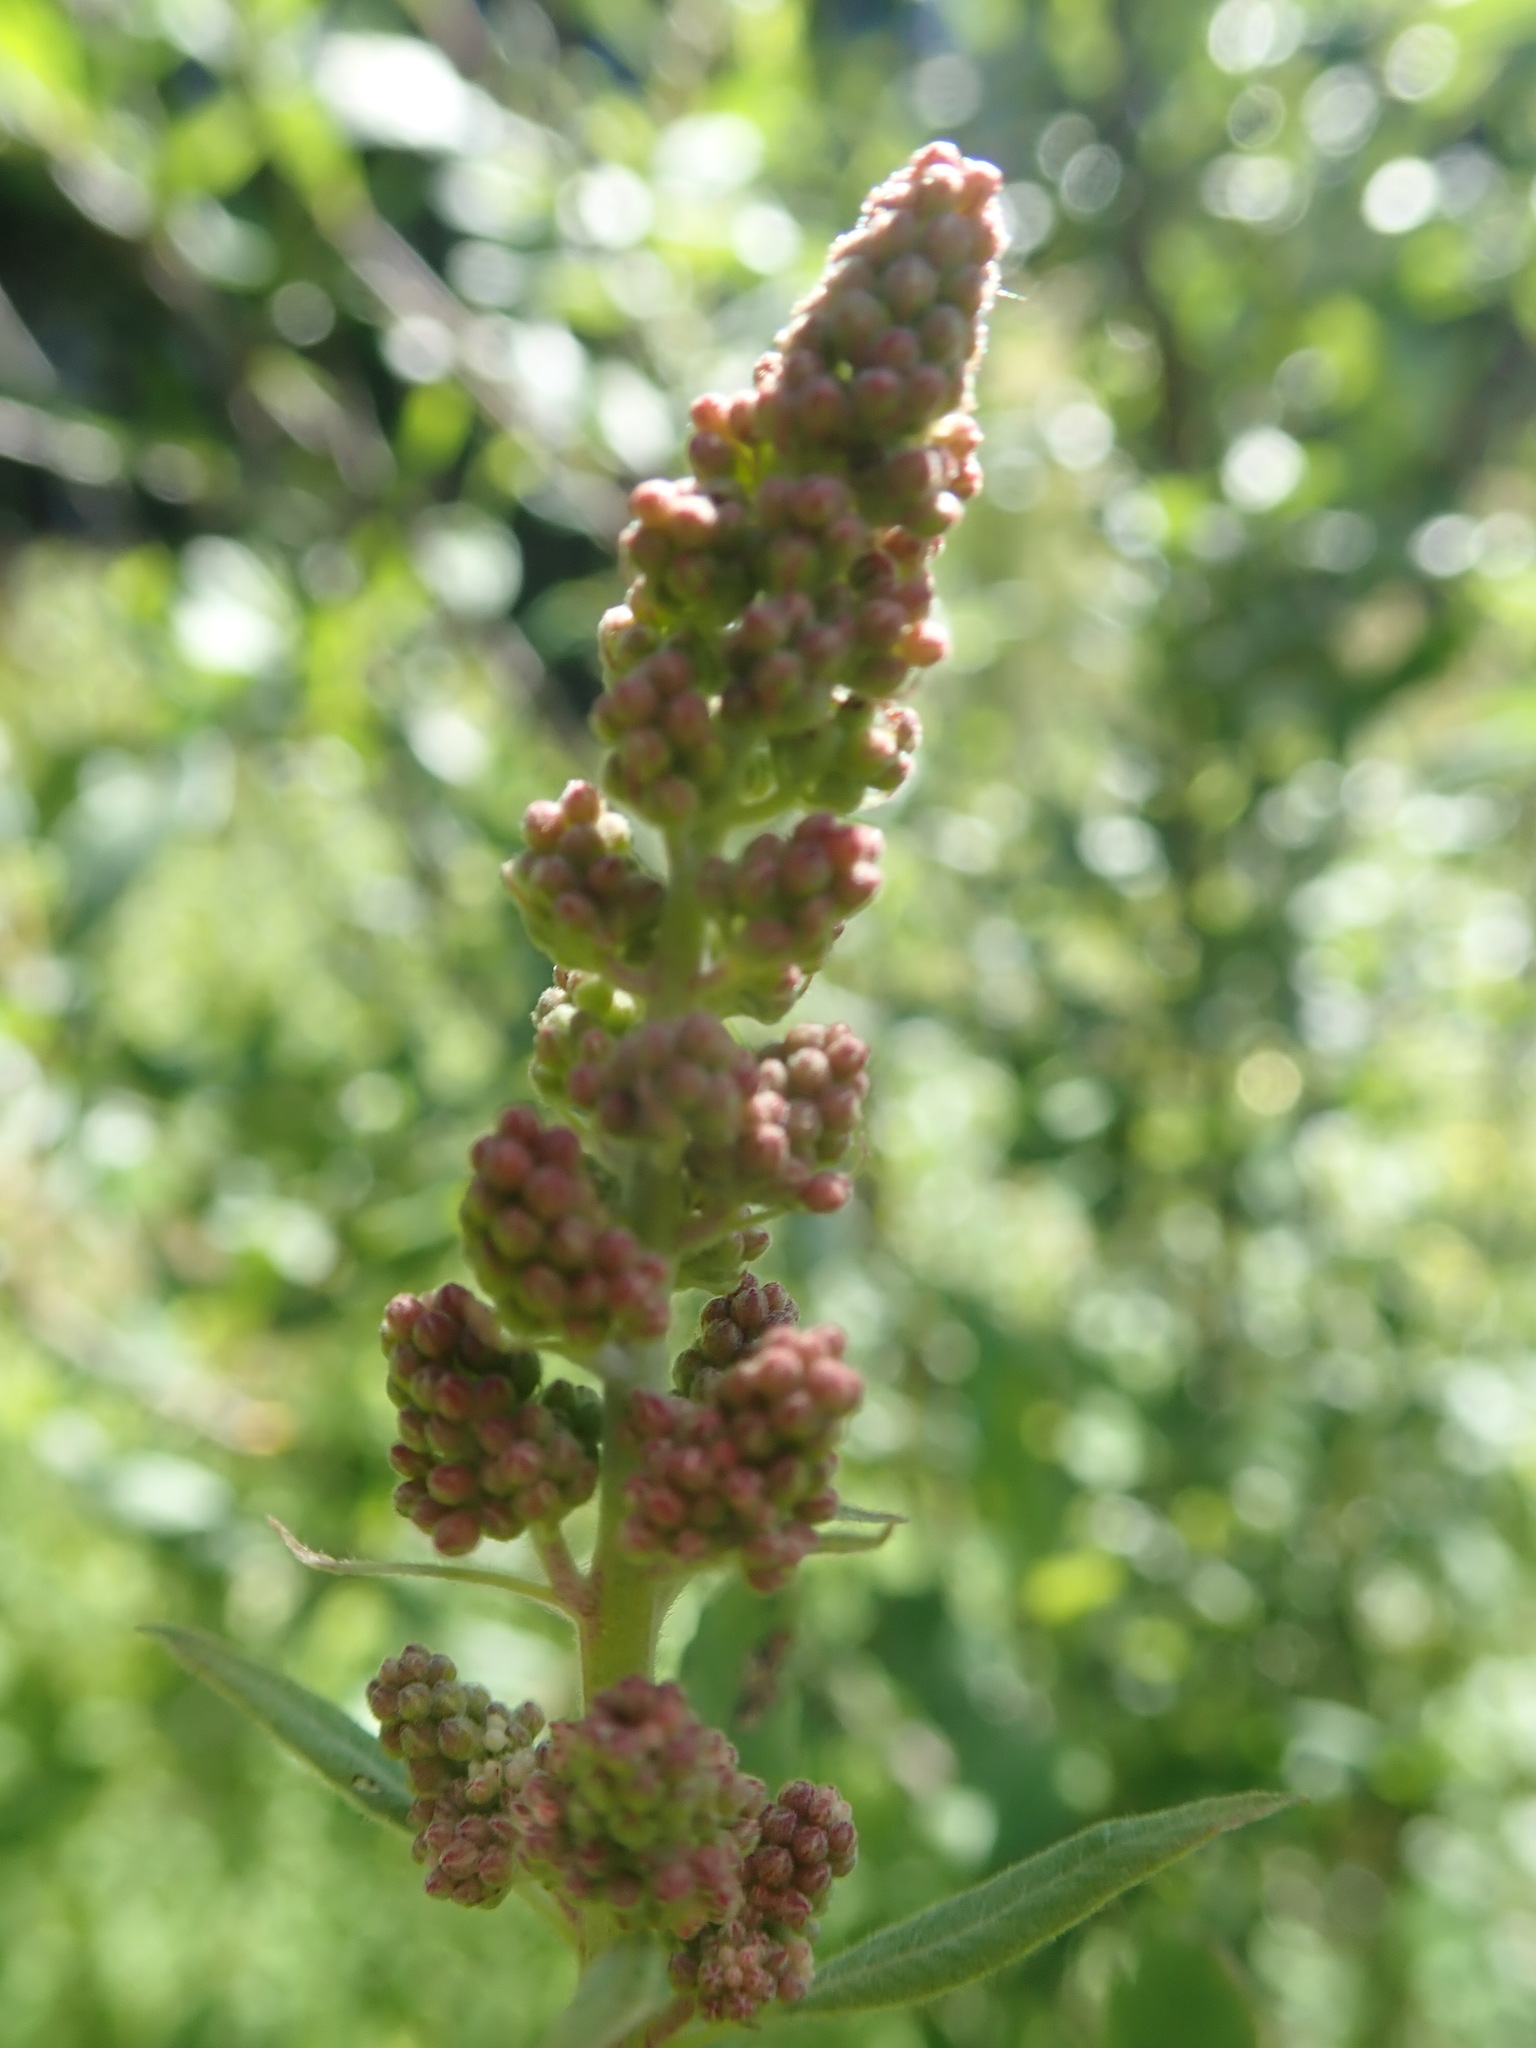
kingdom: Plantae
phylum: Tracheophyta
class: Magnoliopsida
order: Rosales
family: Rosaceae
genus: Spiraea
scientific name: Spiraea douglasii
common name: Steeplebush
